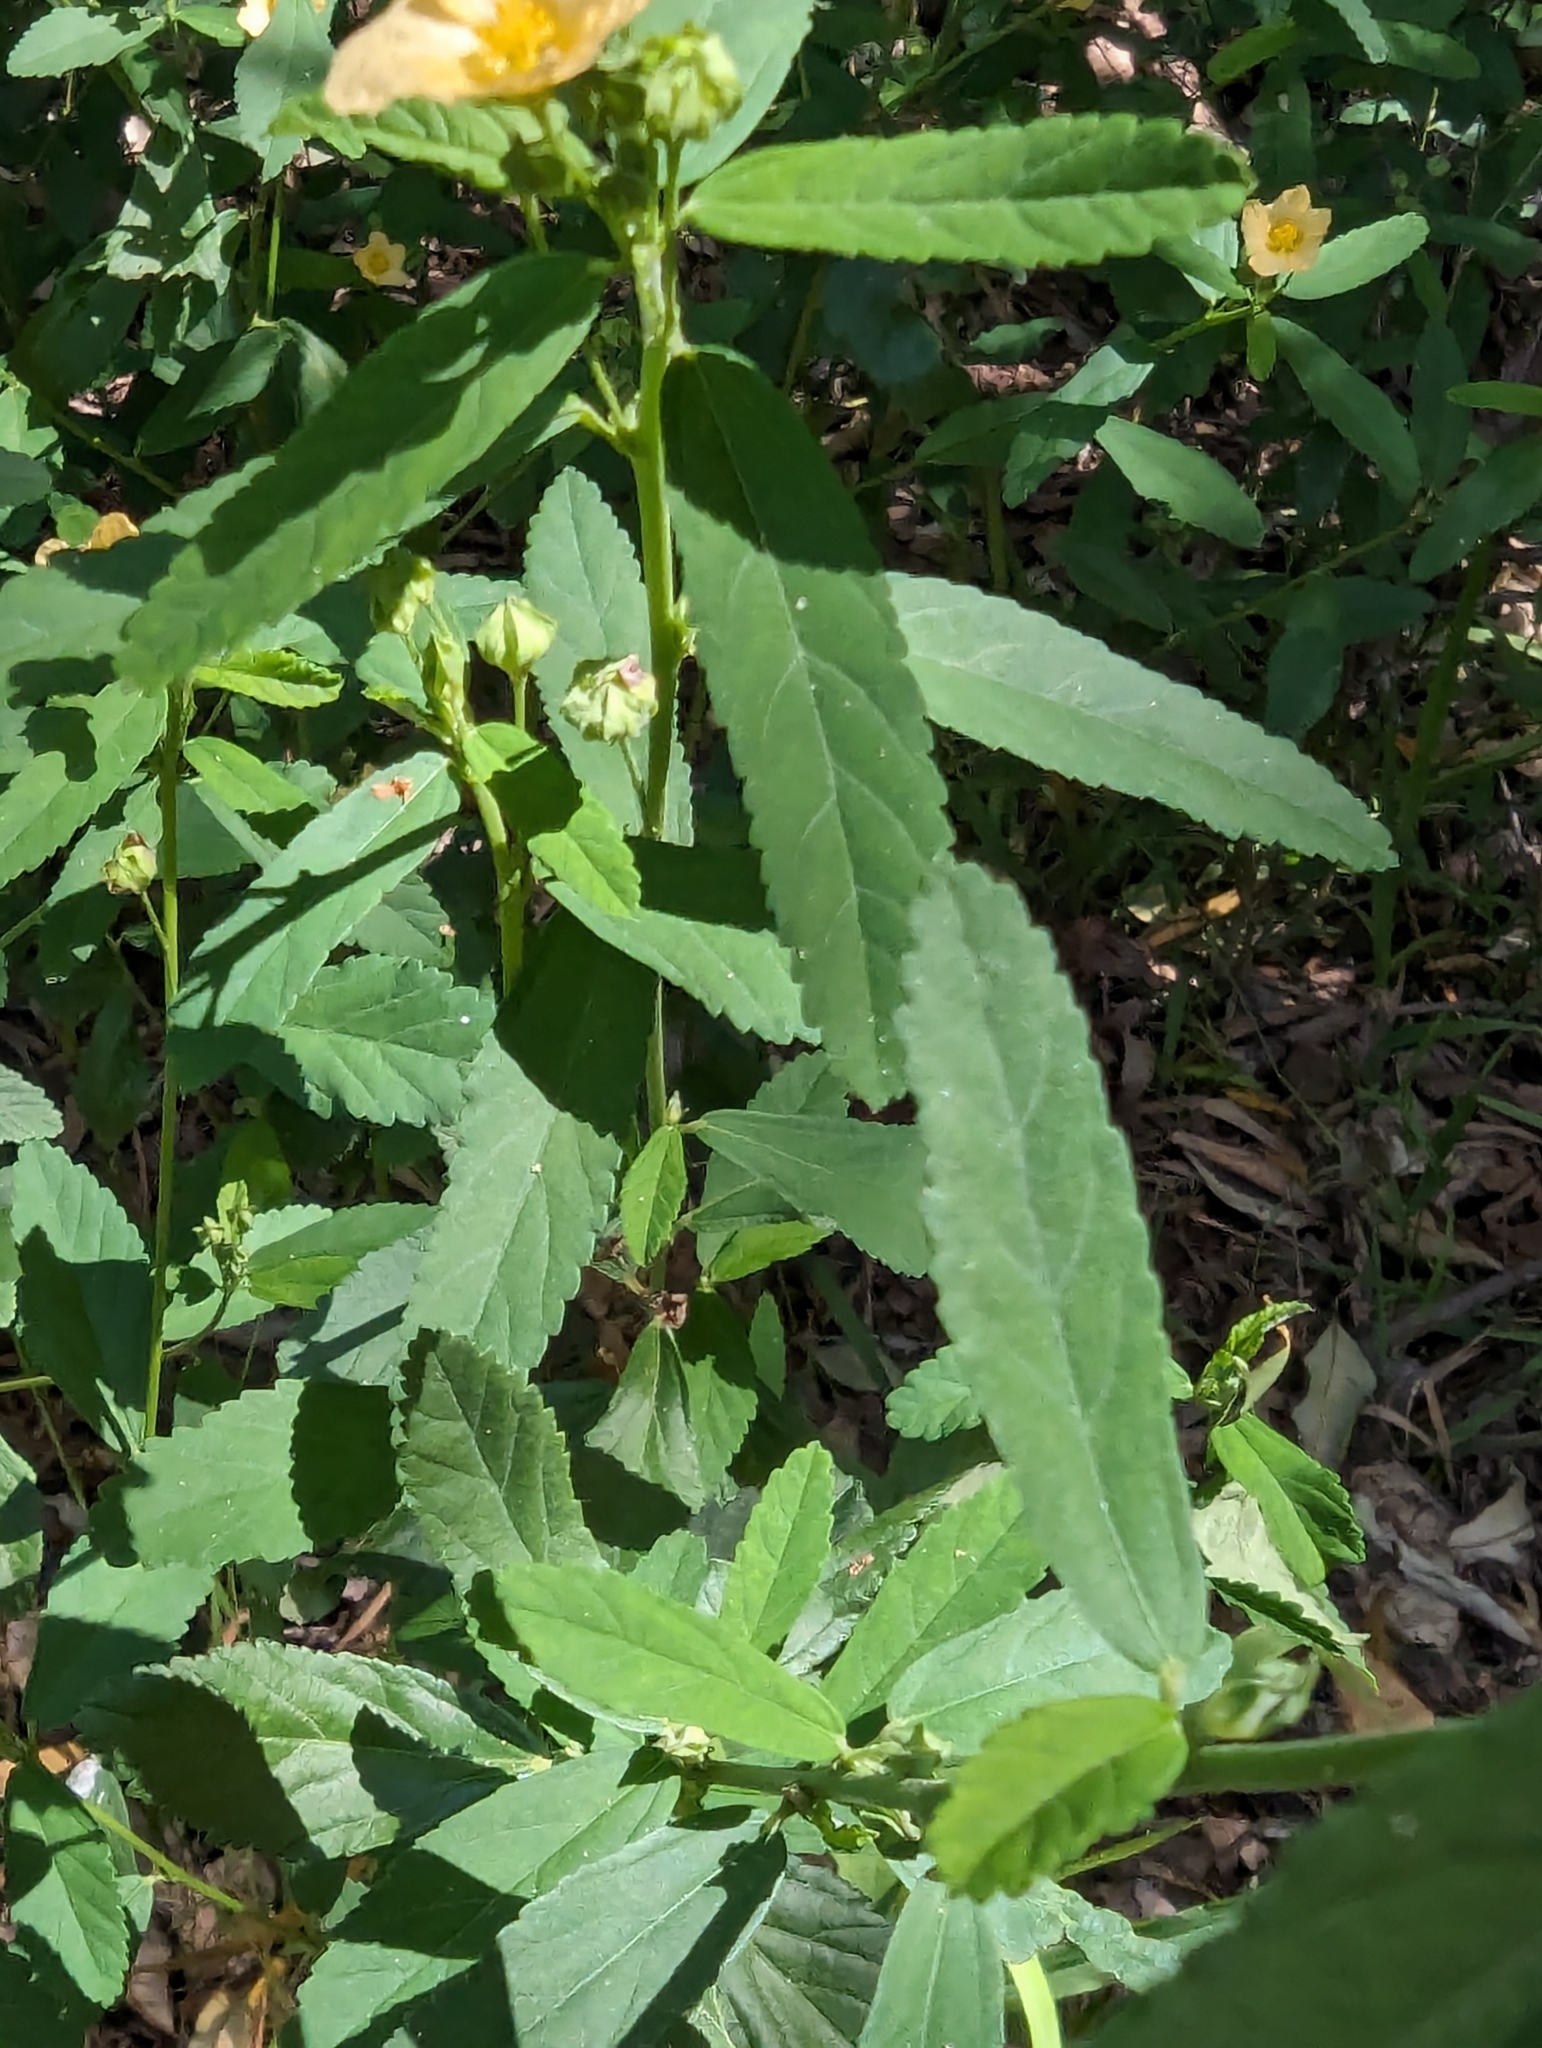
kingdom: Plantae
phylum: Tracheophyta
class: Magnoliopsida
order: Malvales
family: Malvaceae
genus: Sida
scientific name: Sida rhombifolia
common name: Queensland-hemp
